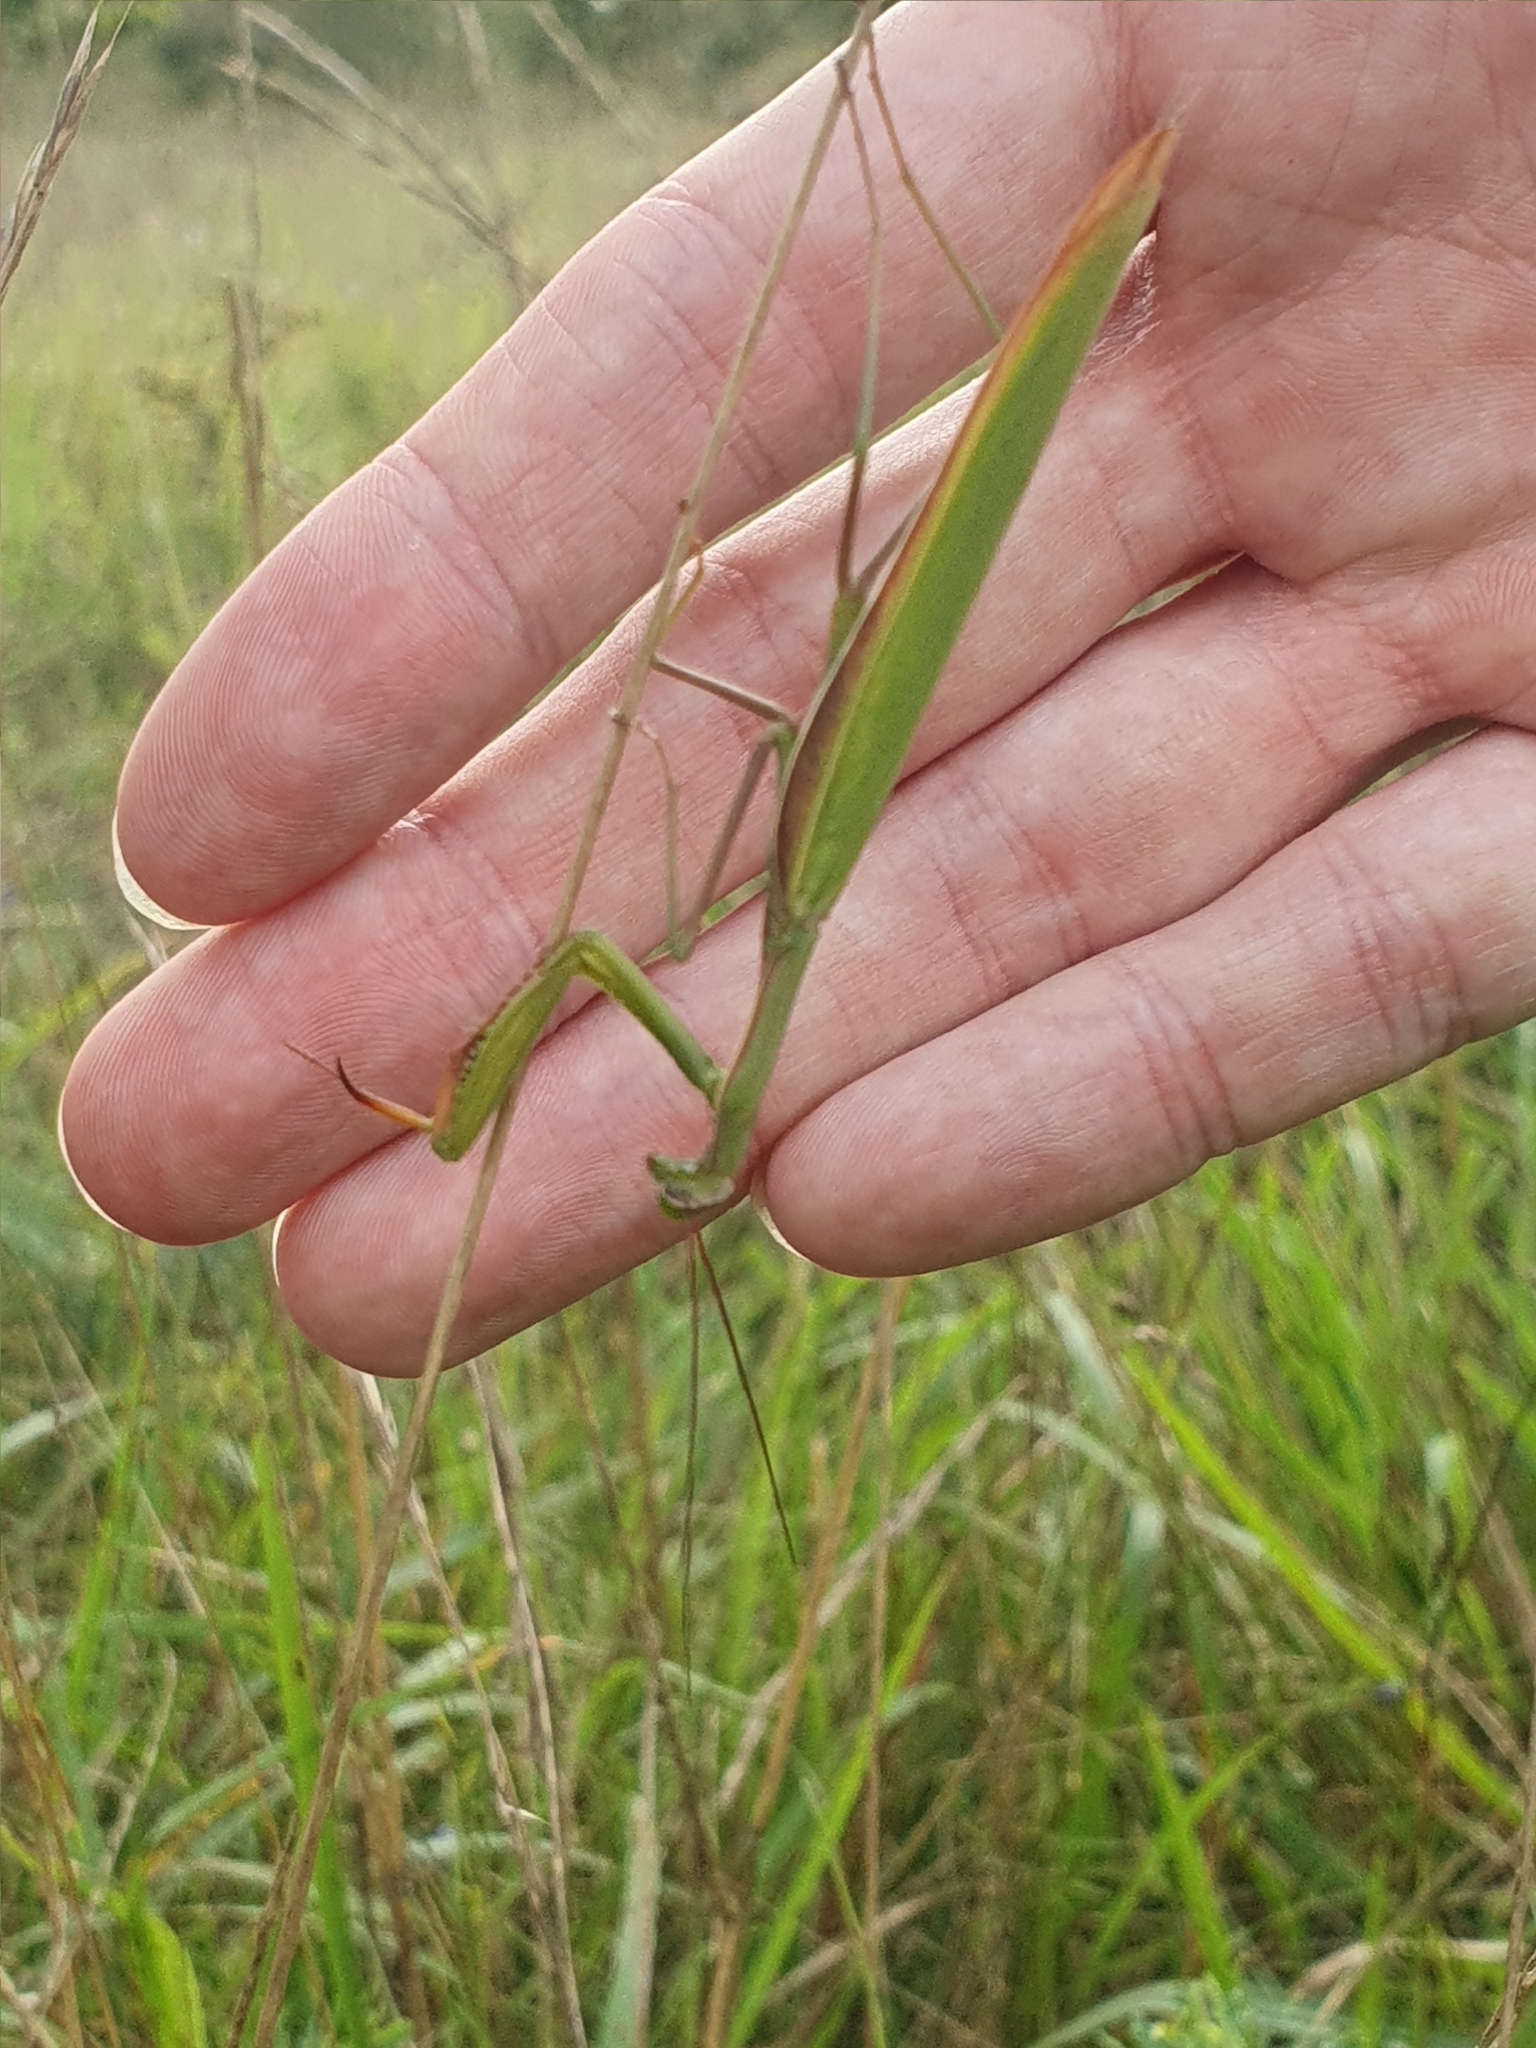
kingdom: Animalia
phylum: Arthropoda
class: Insecta
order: Mantodea
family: Mantidae
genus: Mantis
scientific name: Mantis religiosa
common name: Praying mantis
